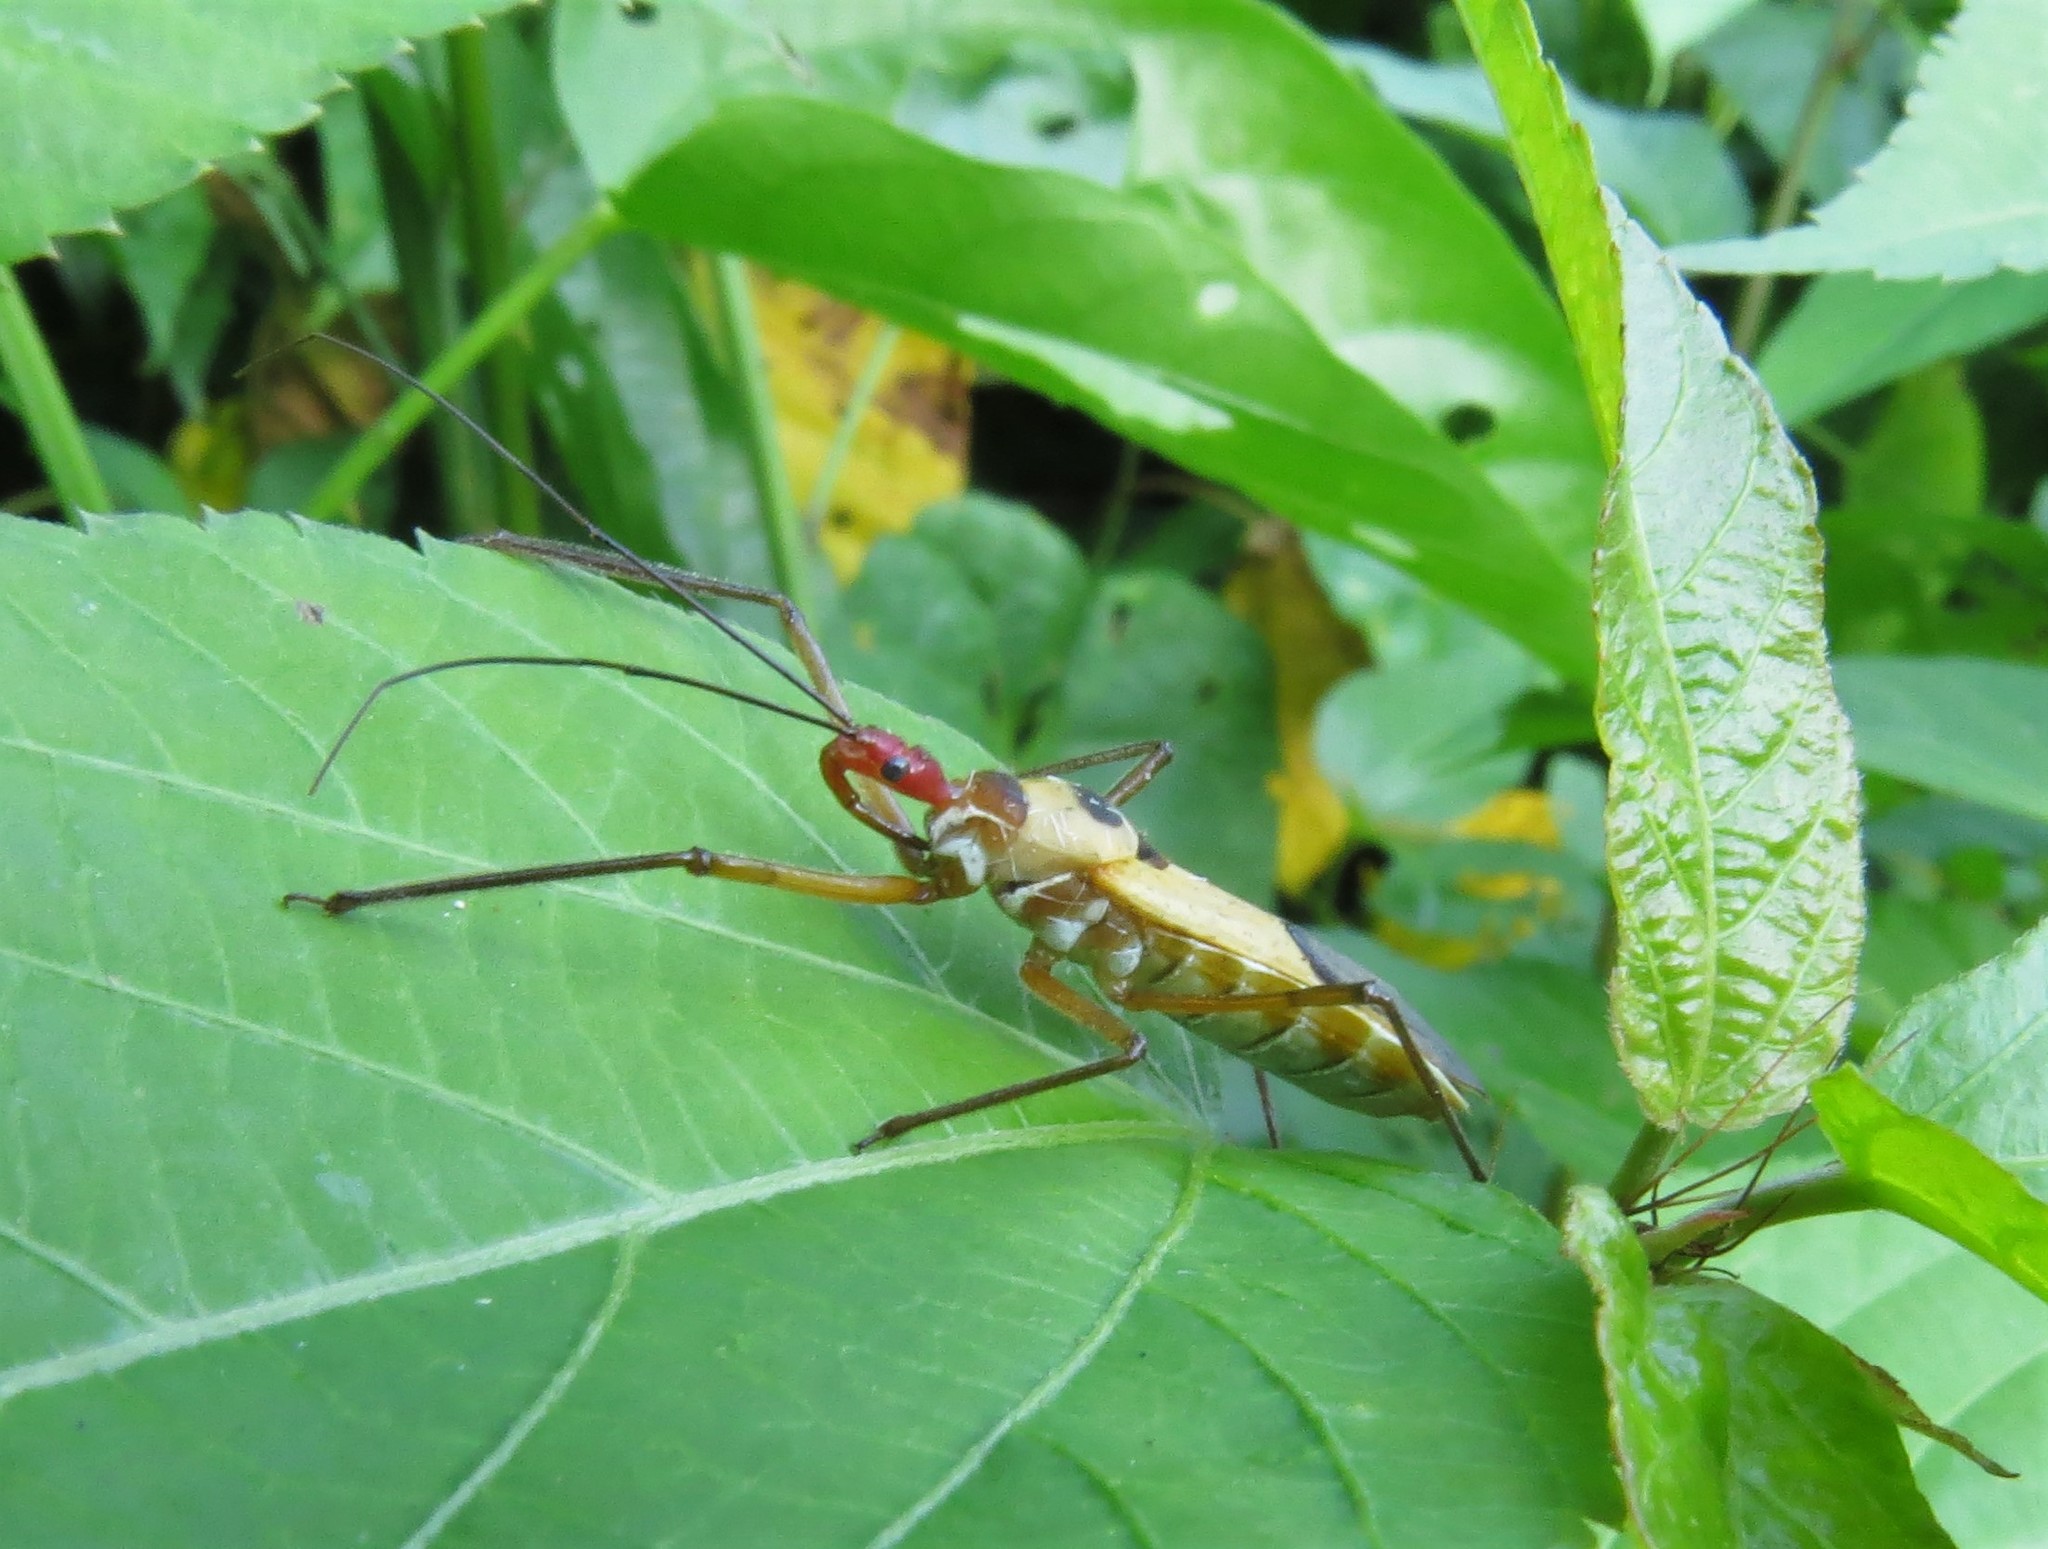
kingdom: Animalia
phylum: Arthropoda
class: Insecta
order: Hemiptera
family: Reduviidae
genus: Zelus
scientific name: Zelus ruficeps
